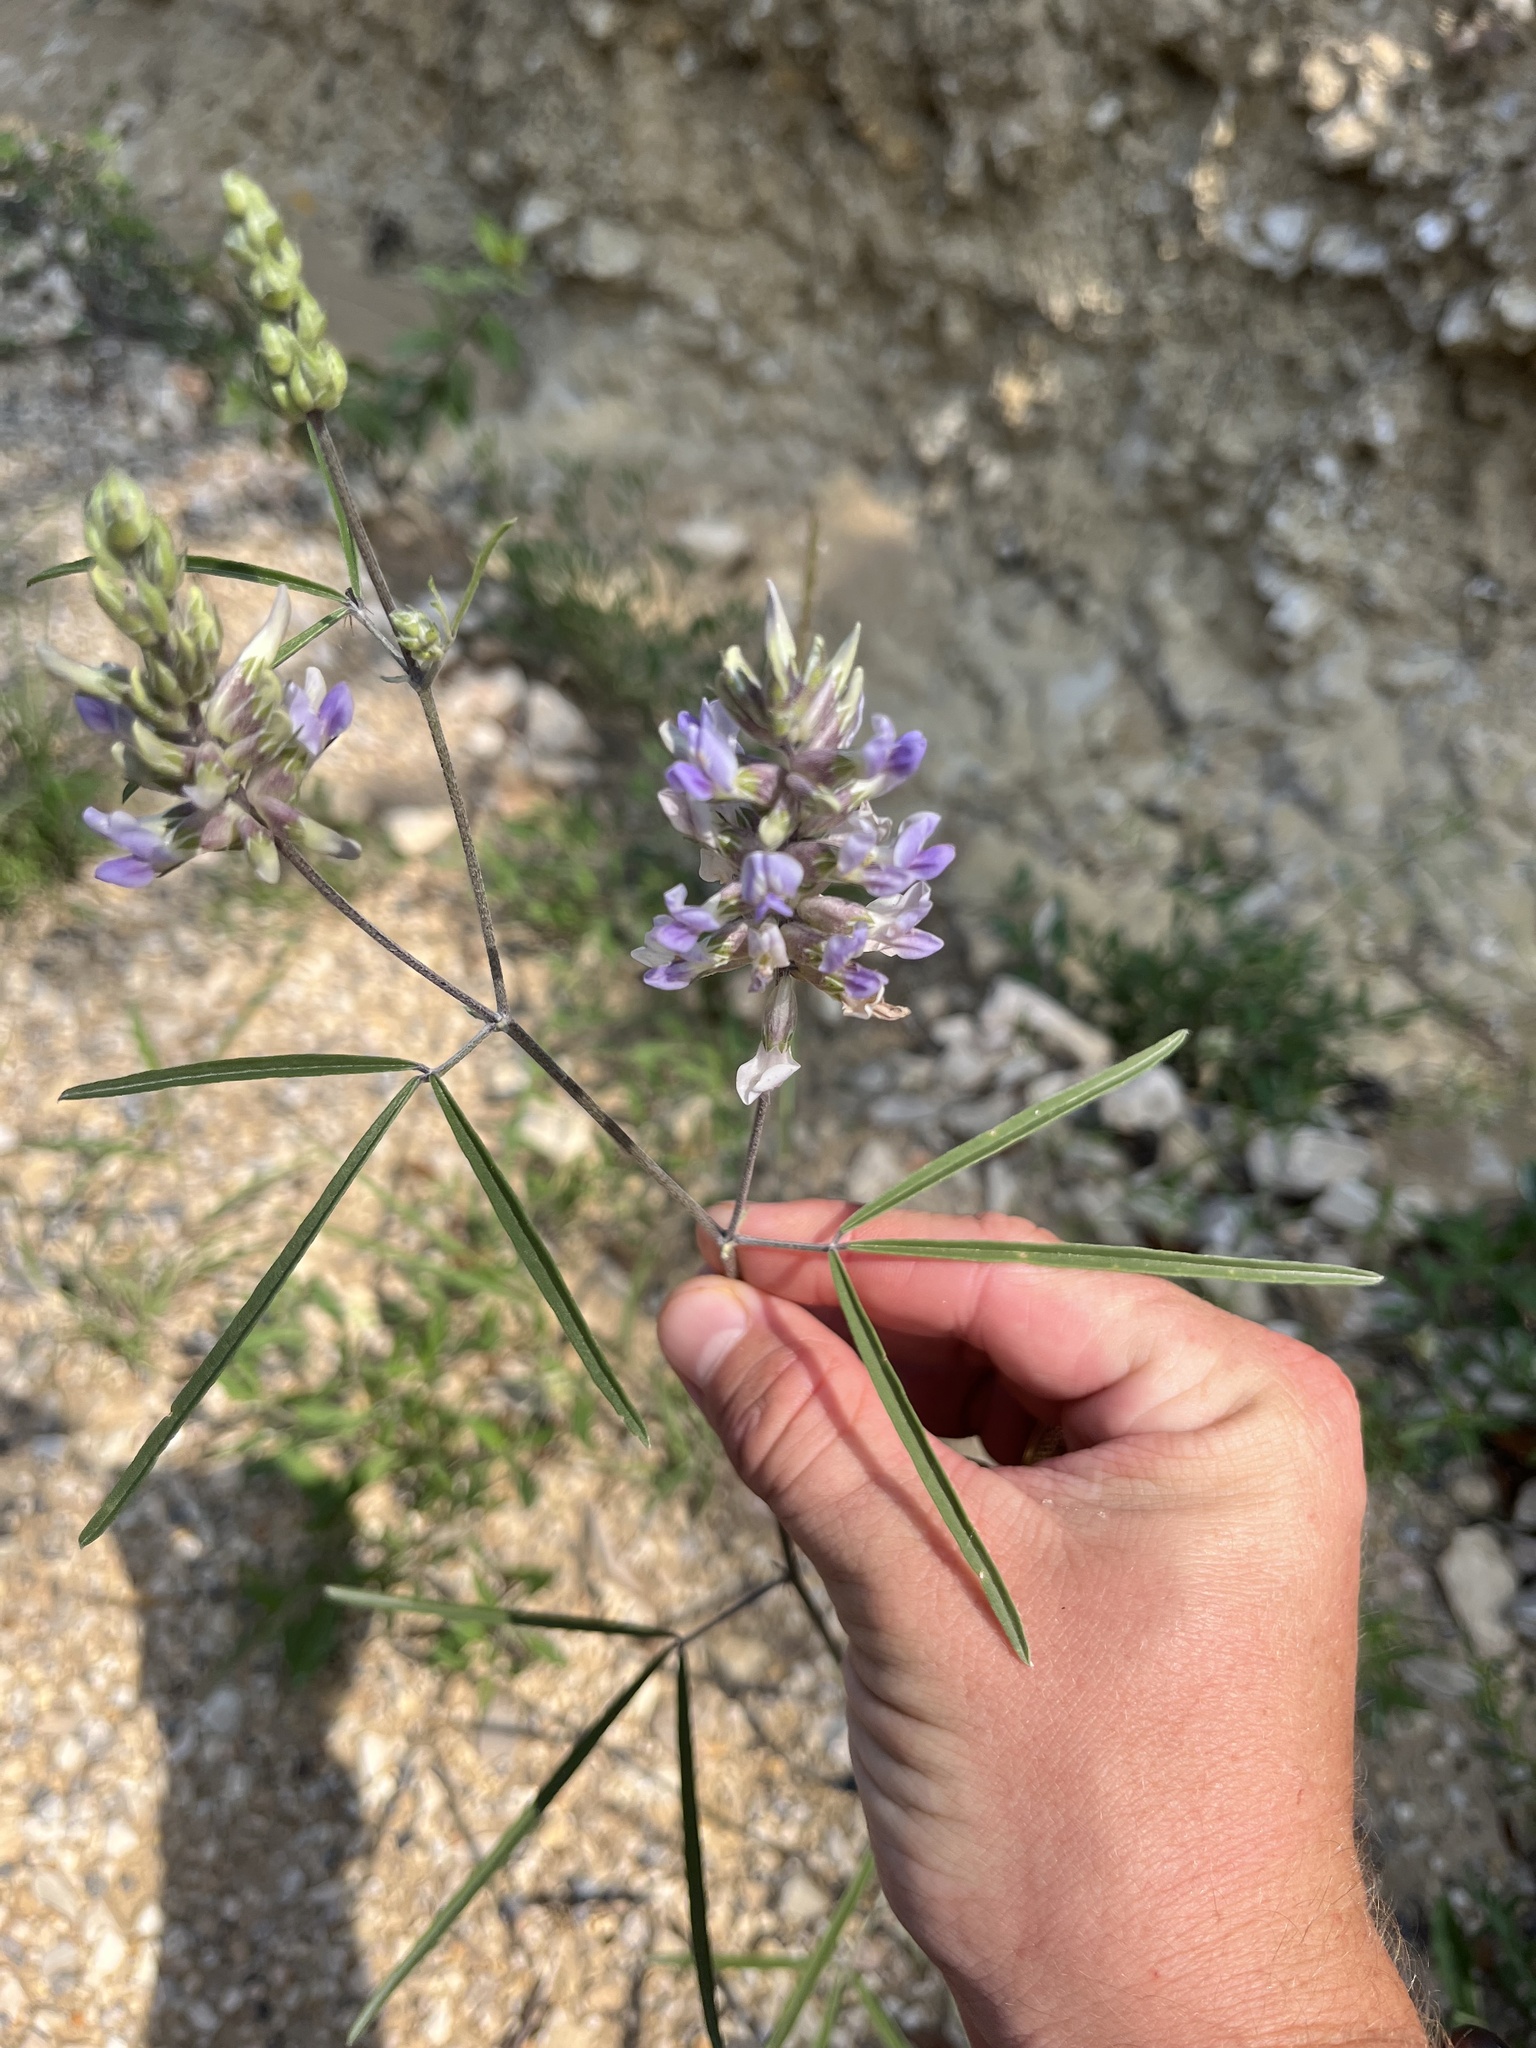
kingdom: Plantae
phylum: Tracheophyta
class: Magnoliopsida
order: Fabales
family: Fabaceae
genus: Pediomelum
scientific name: Pediomelum cyphocalyx
